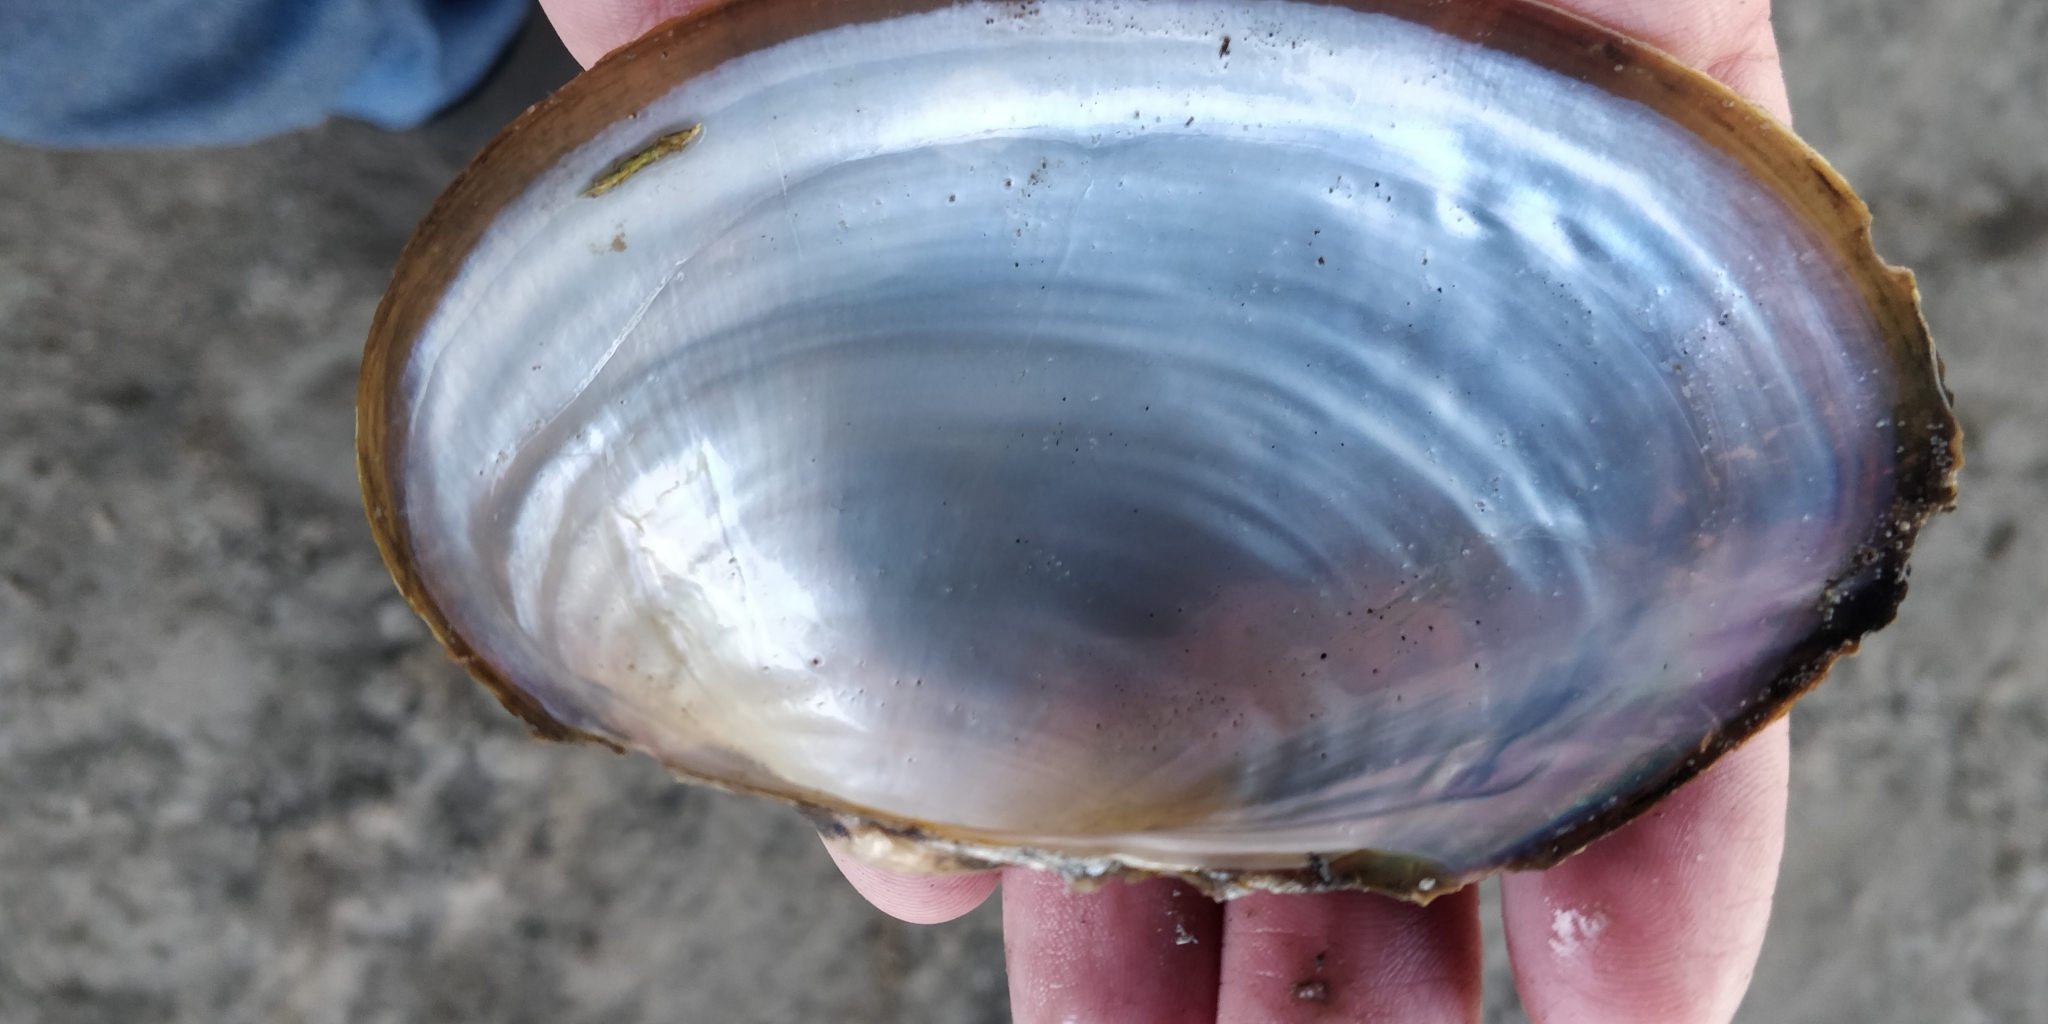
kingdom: Animalia
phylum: Mollusca
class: Bivalvia
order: Unionida
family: Unionidae
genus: Pyganodon
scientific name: Pyganodon grandis
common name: Giant floater
